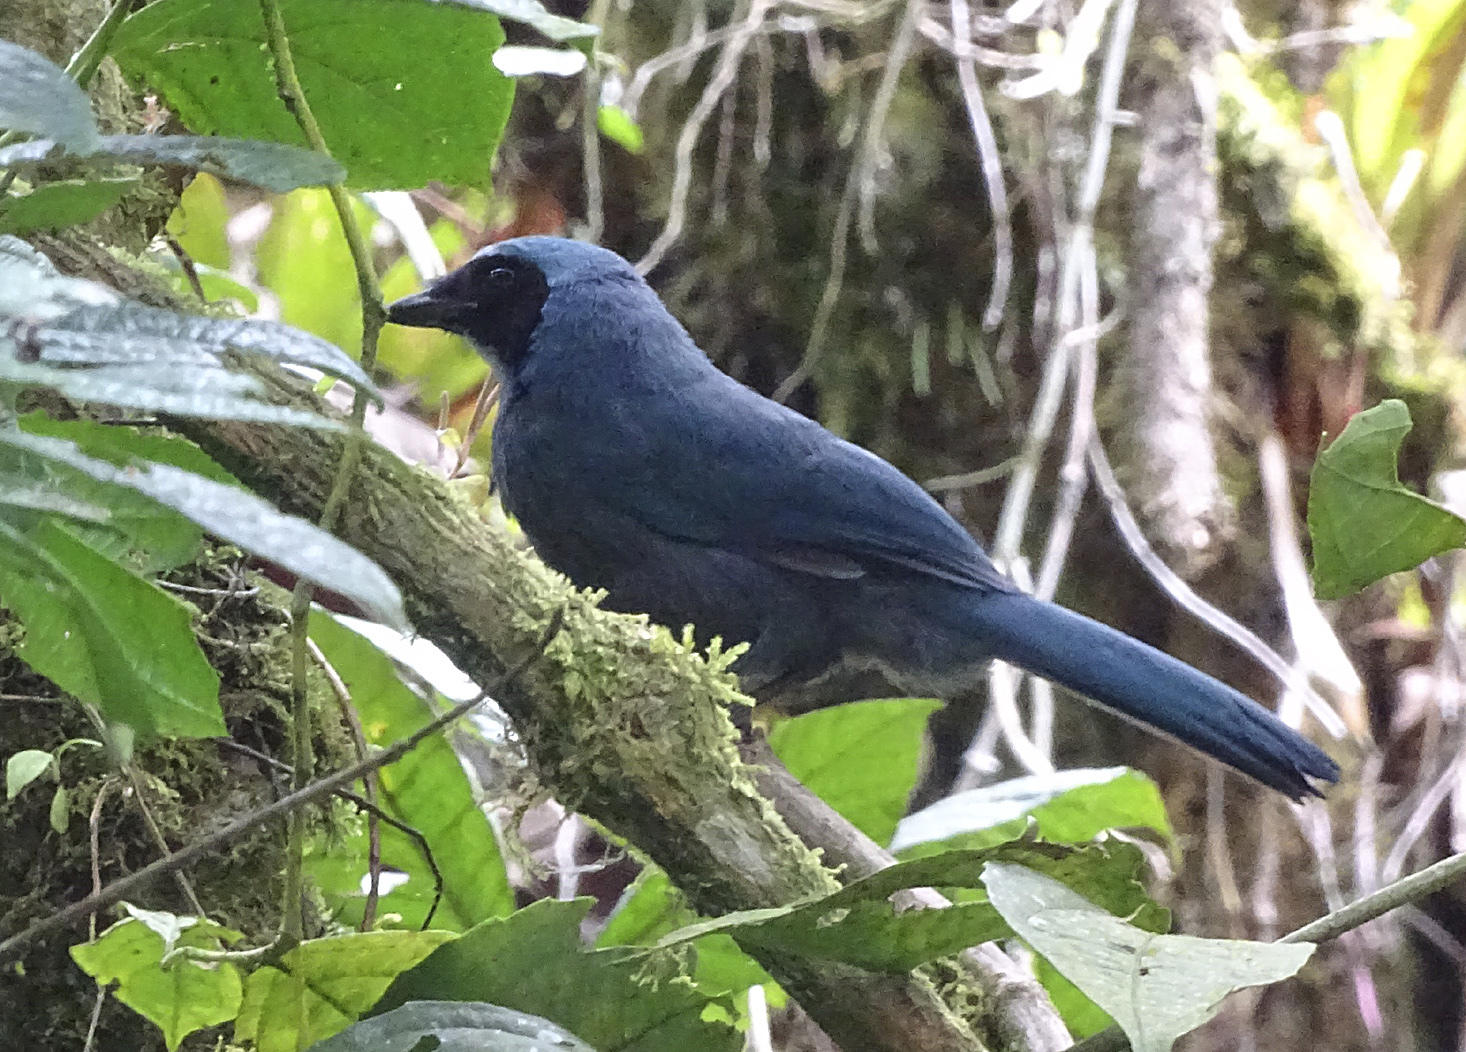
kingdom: Animalia
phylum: Chordata
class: Aves
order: Passeriformes
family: Corvidae
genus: Cyanolyca
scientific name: Cyanolyca turcosa
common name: Turquoise jay
